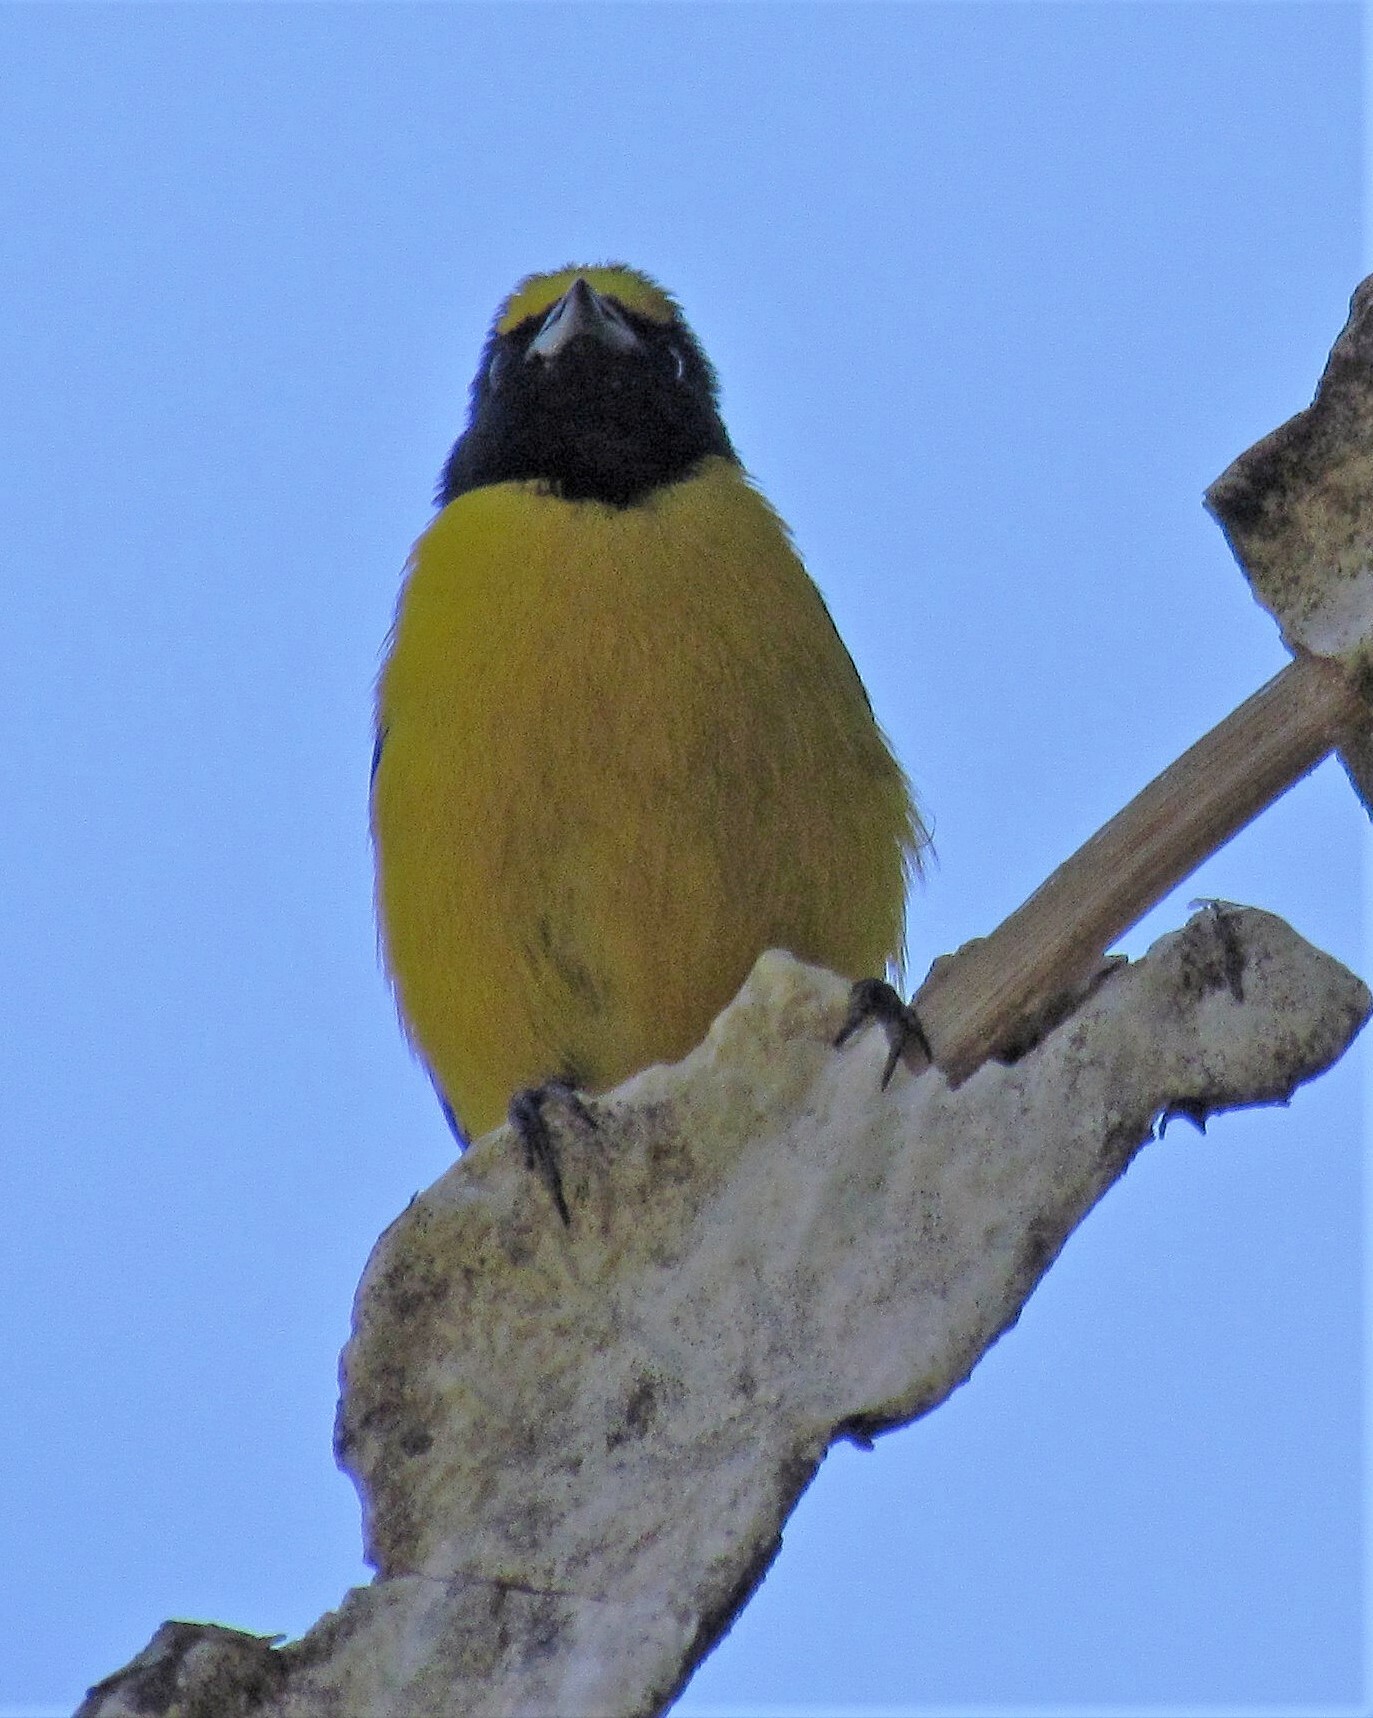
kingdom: Animalia
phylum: Chordata
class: Aves
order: Passeriformes
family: Fringillidae
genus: Euphonia
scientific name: Euphonia chlorotica
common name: Purple-throated euphonia
